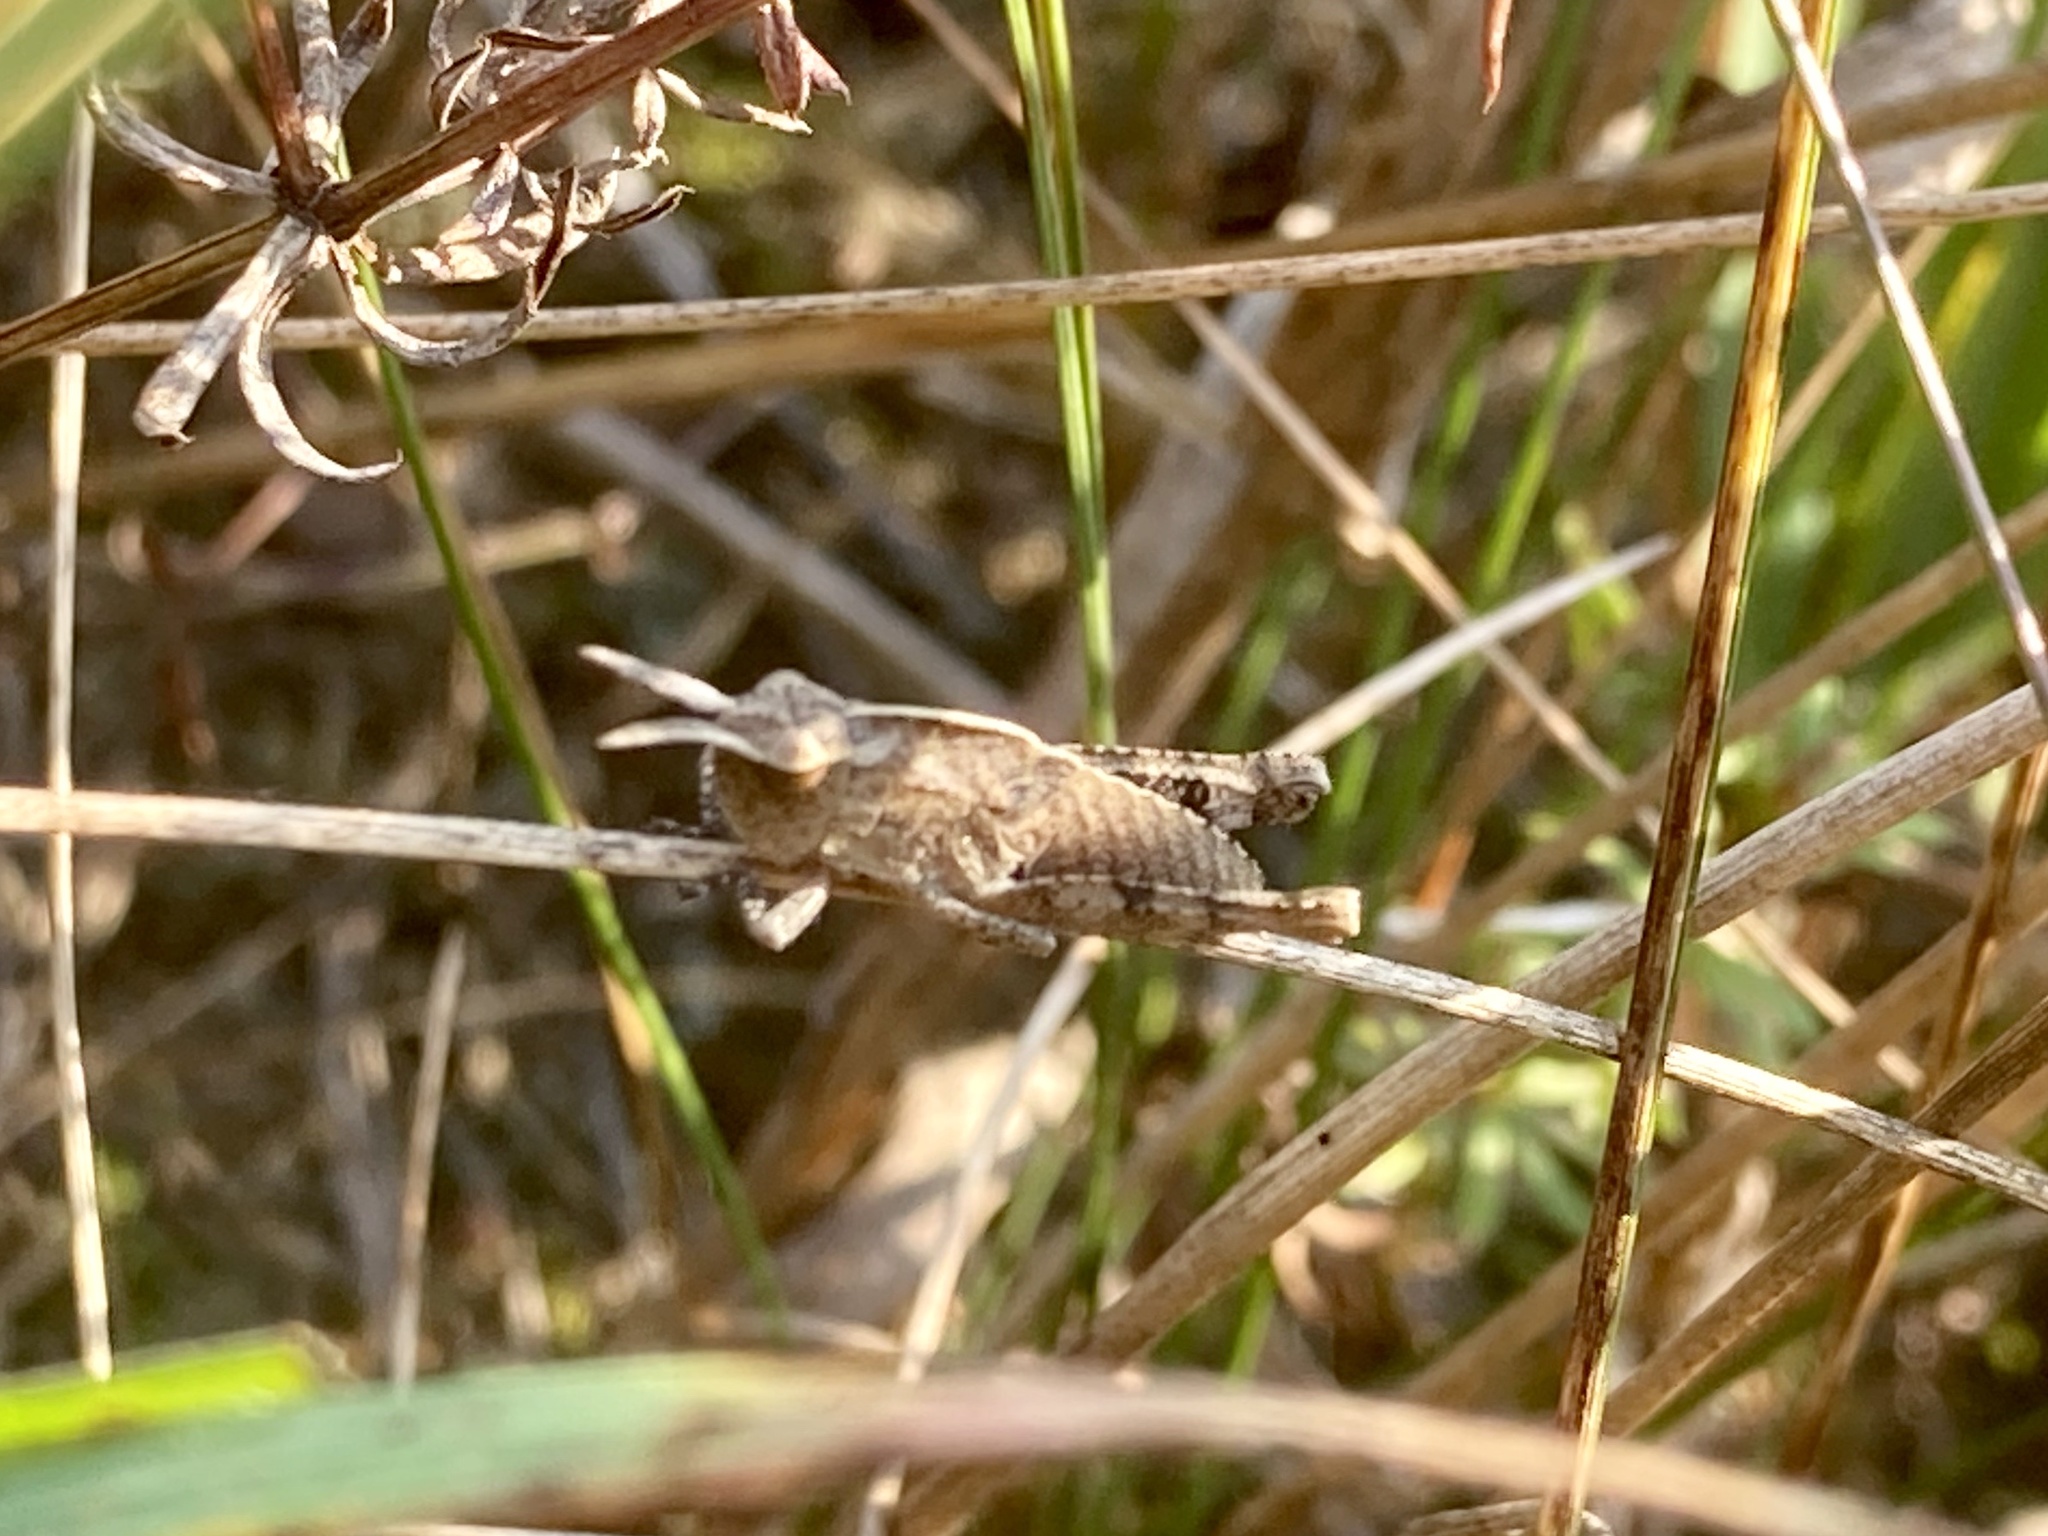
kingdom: Animalia
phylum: Arthropoda
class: Insecta
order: Orthoptera
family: Acrididae
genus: Chortophaga
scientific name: Chortophaga viridifasciata
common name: Green-striped grasshopper
